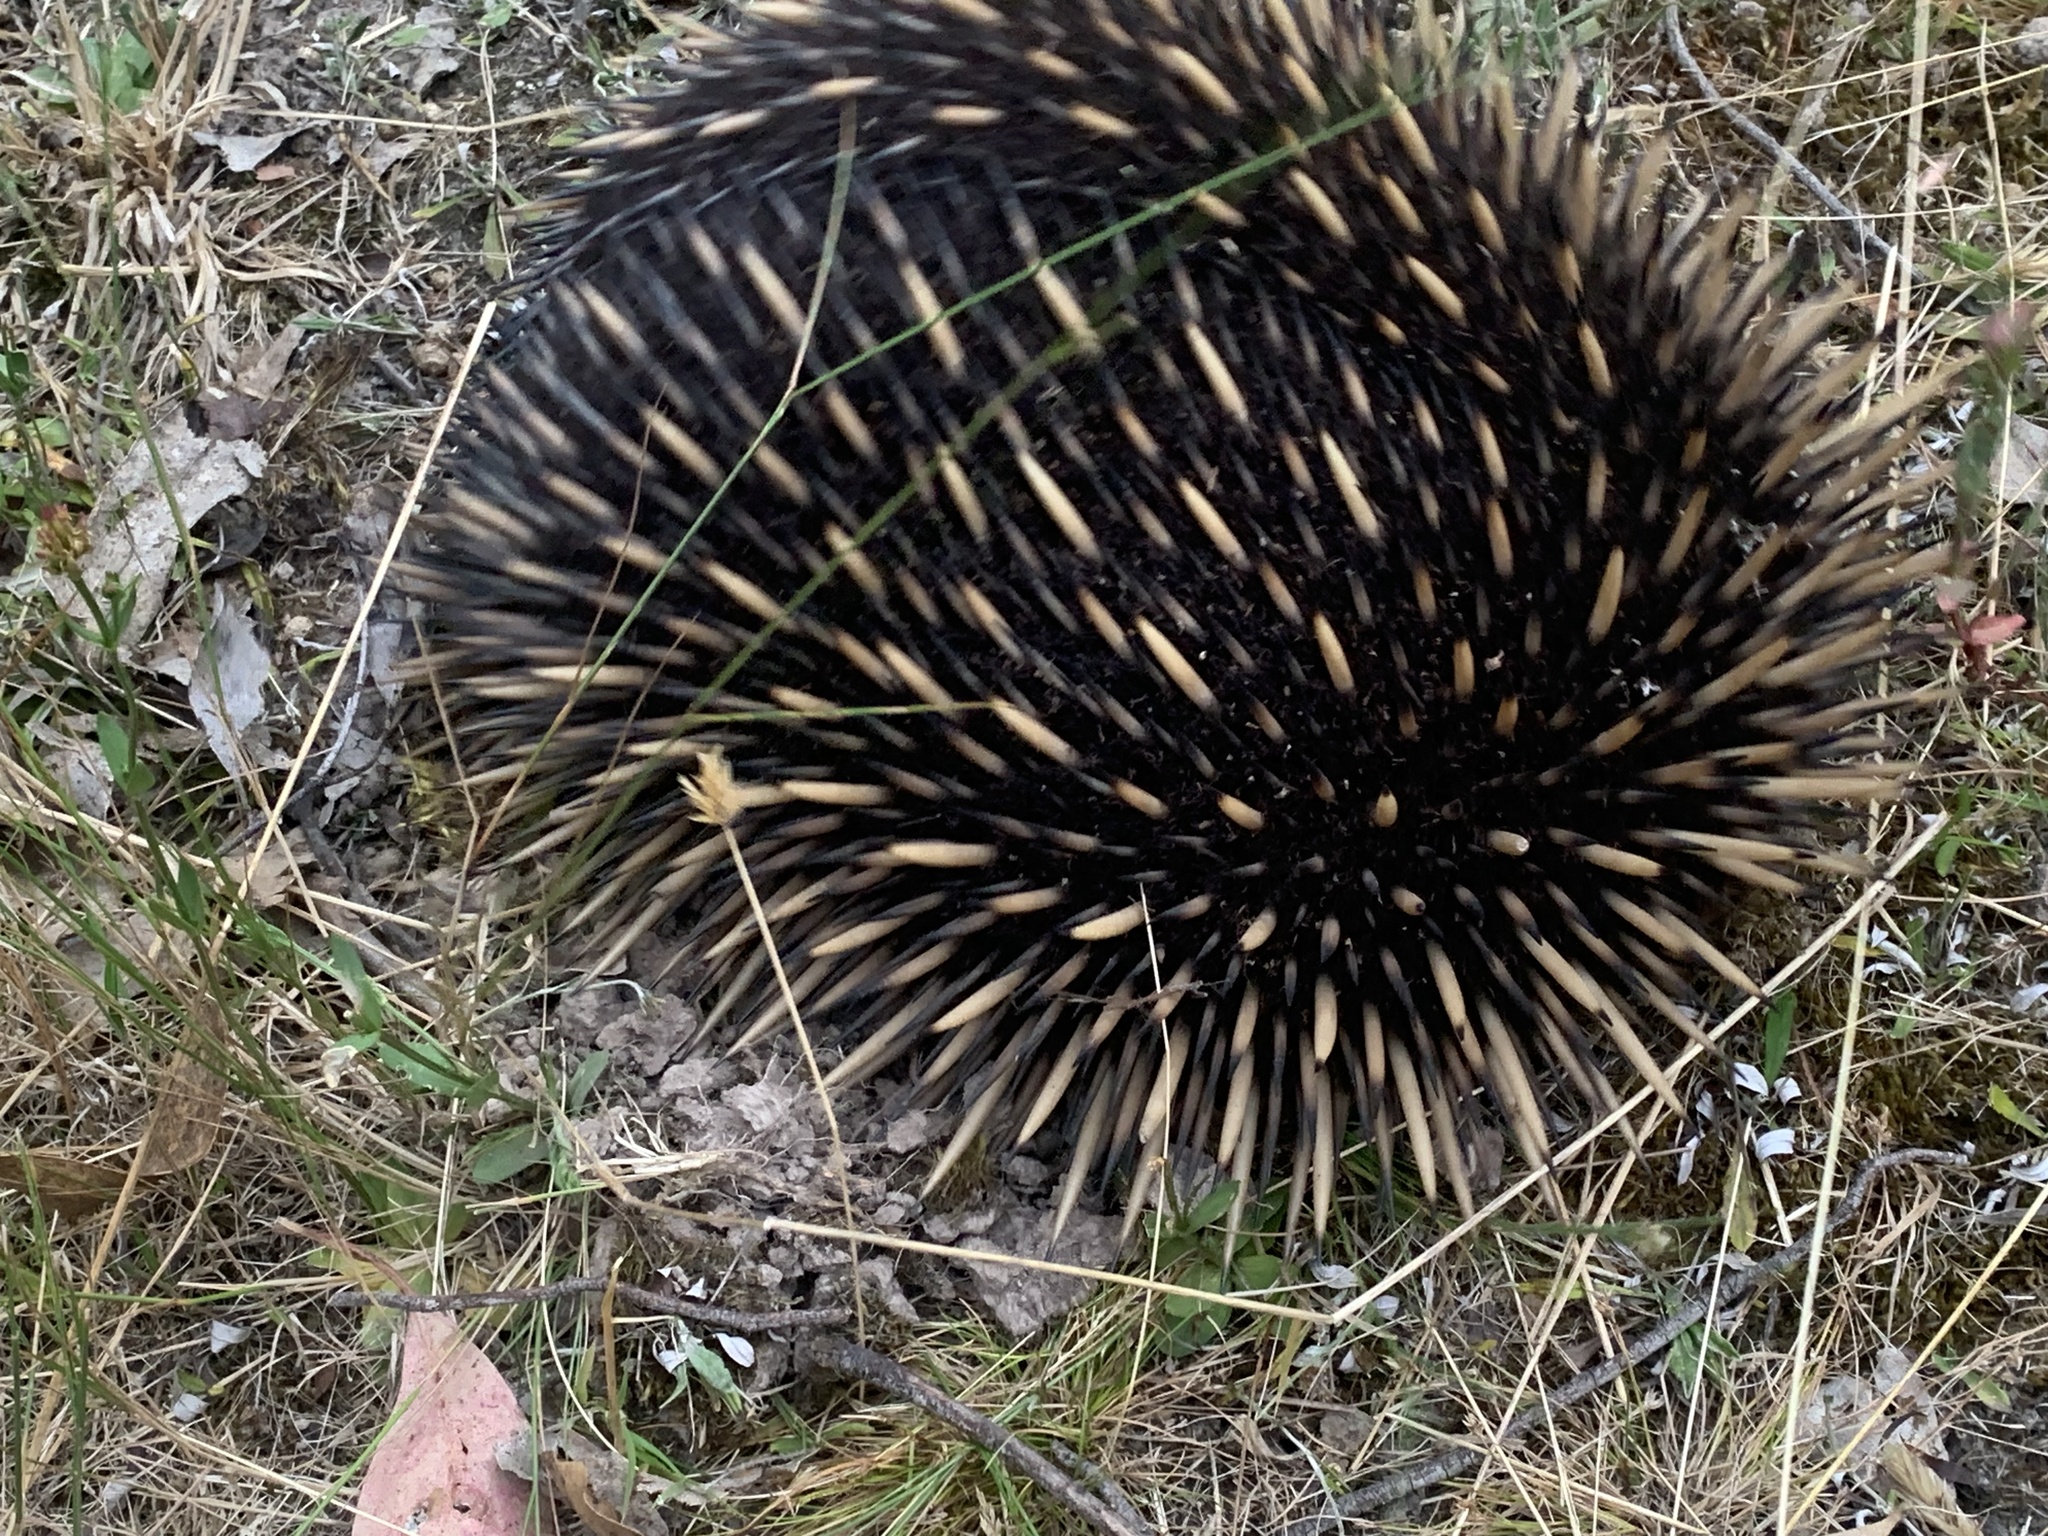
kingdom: Animalia
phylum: Chordata
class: Mammalia
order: Monotremata
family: Tachyglossidae
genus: Tachyglossus
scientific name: Tachyglossus aculeatus
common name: Short-beaked echidna
